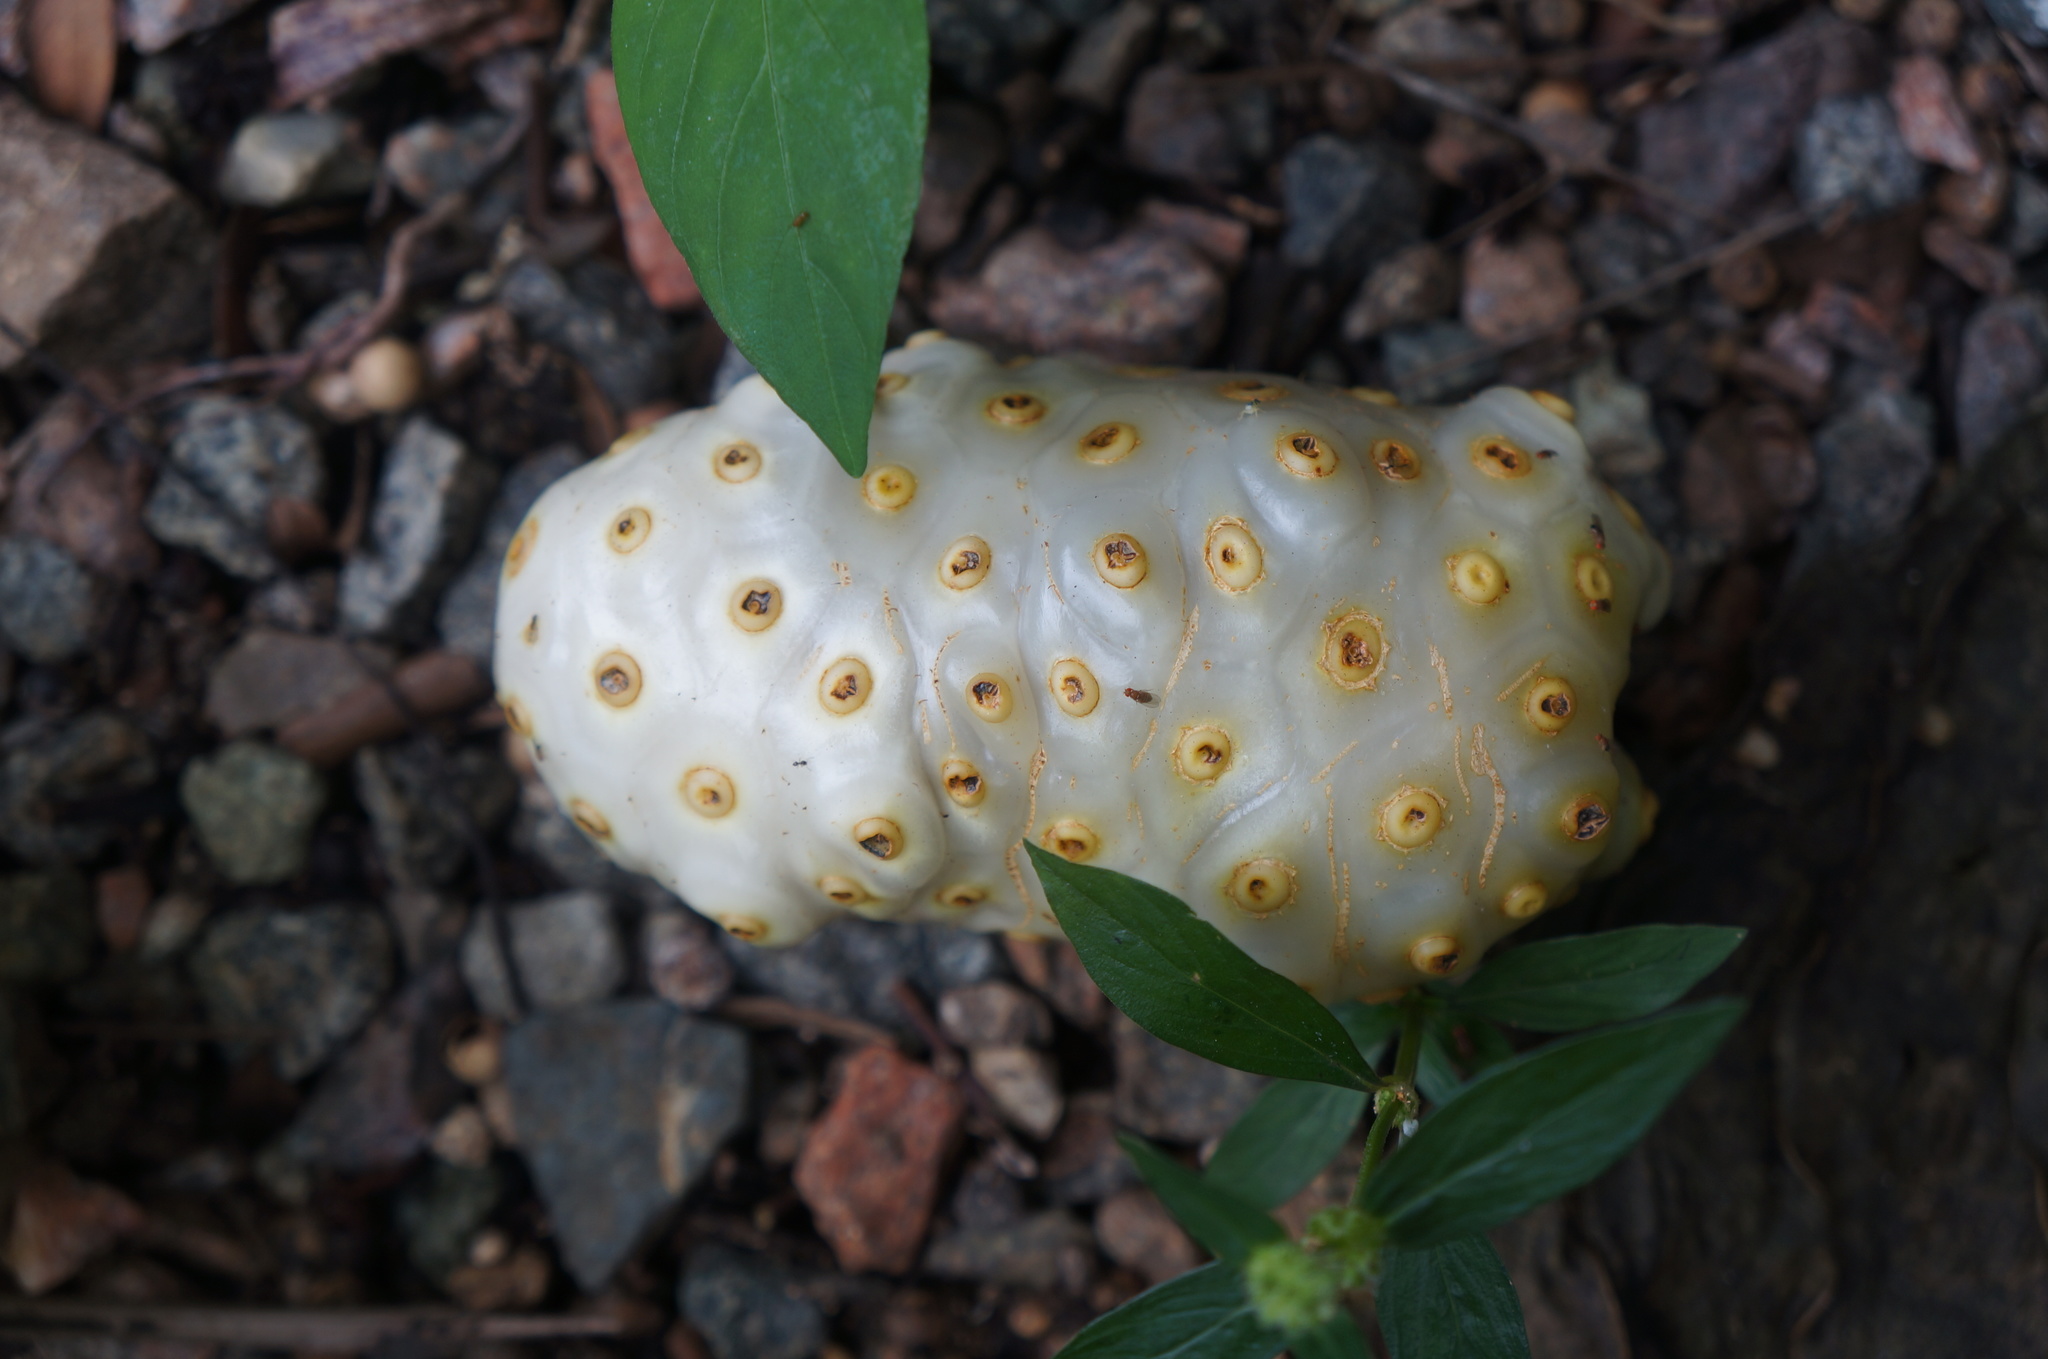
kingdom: Plantae
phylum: Tracheophyta
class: Magnoliopsida
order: Gentianales
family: Rubiaceae
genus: Morinda
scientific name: Morinda citrifolia
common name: Indian-mulberry
